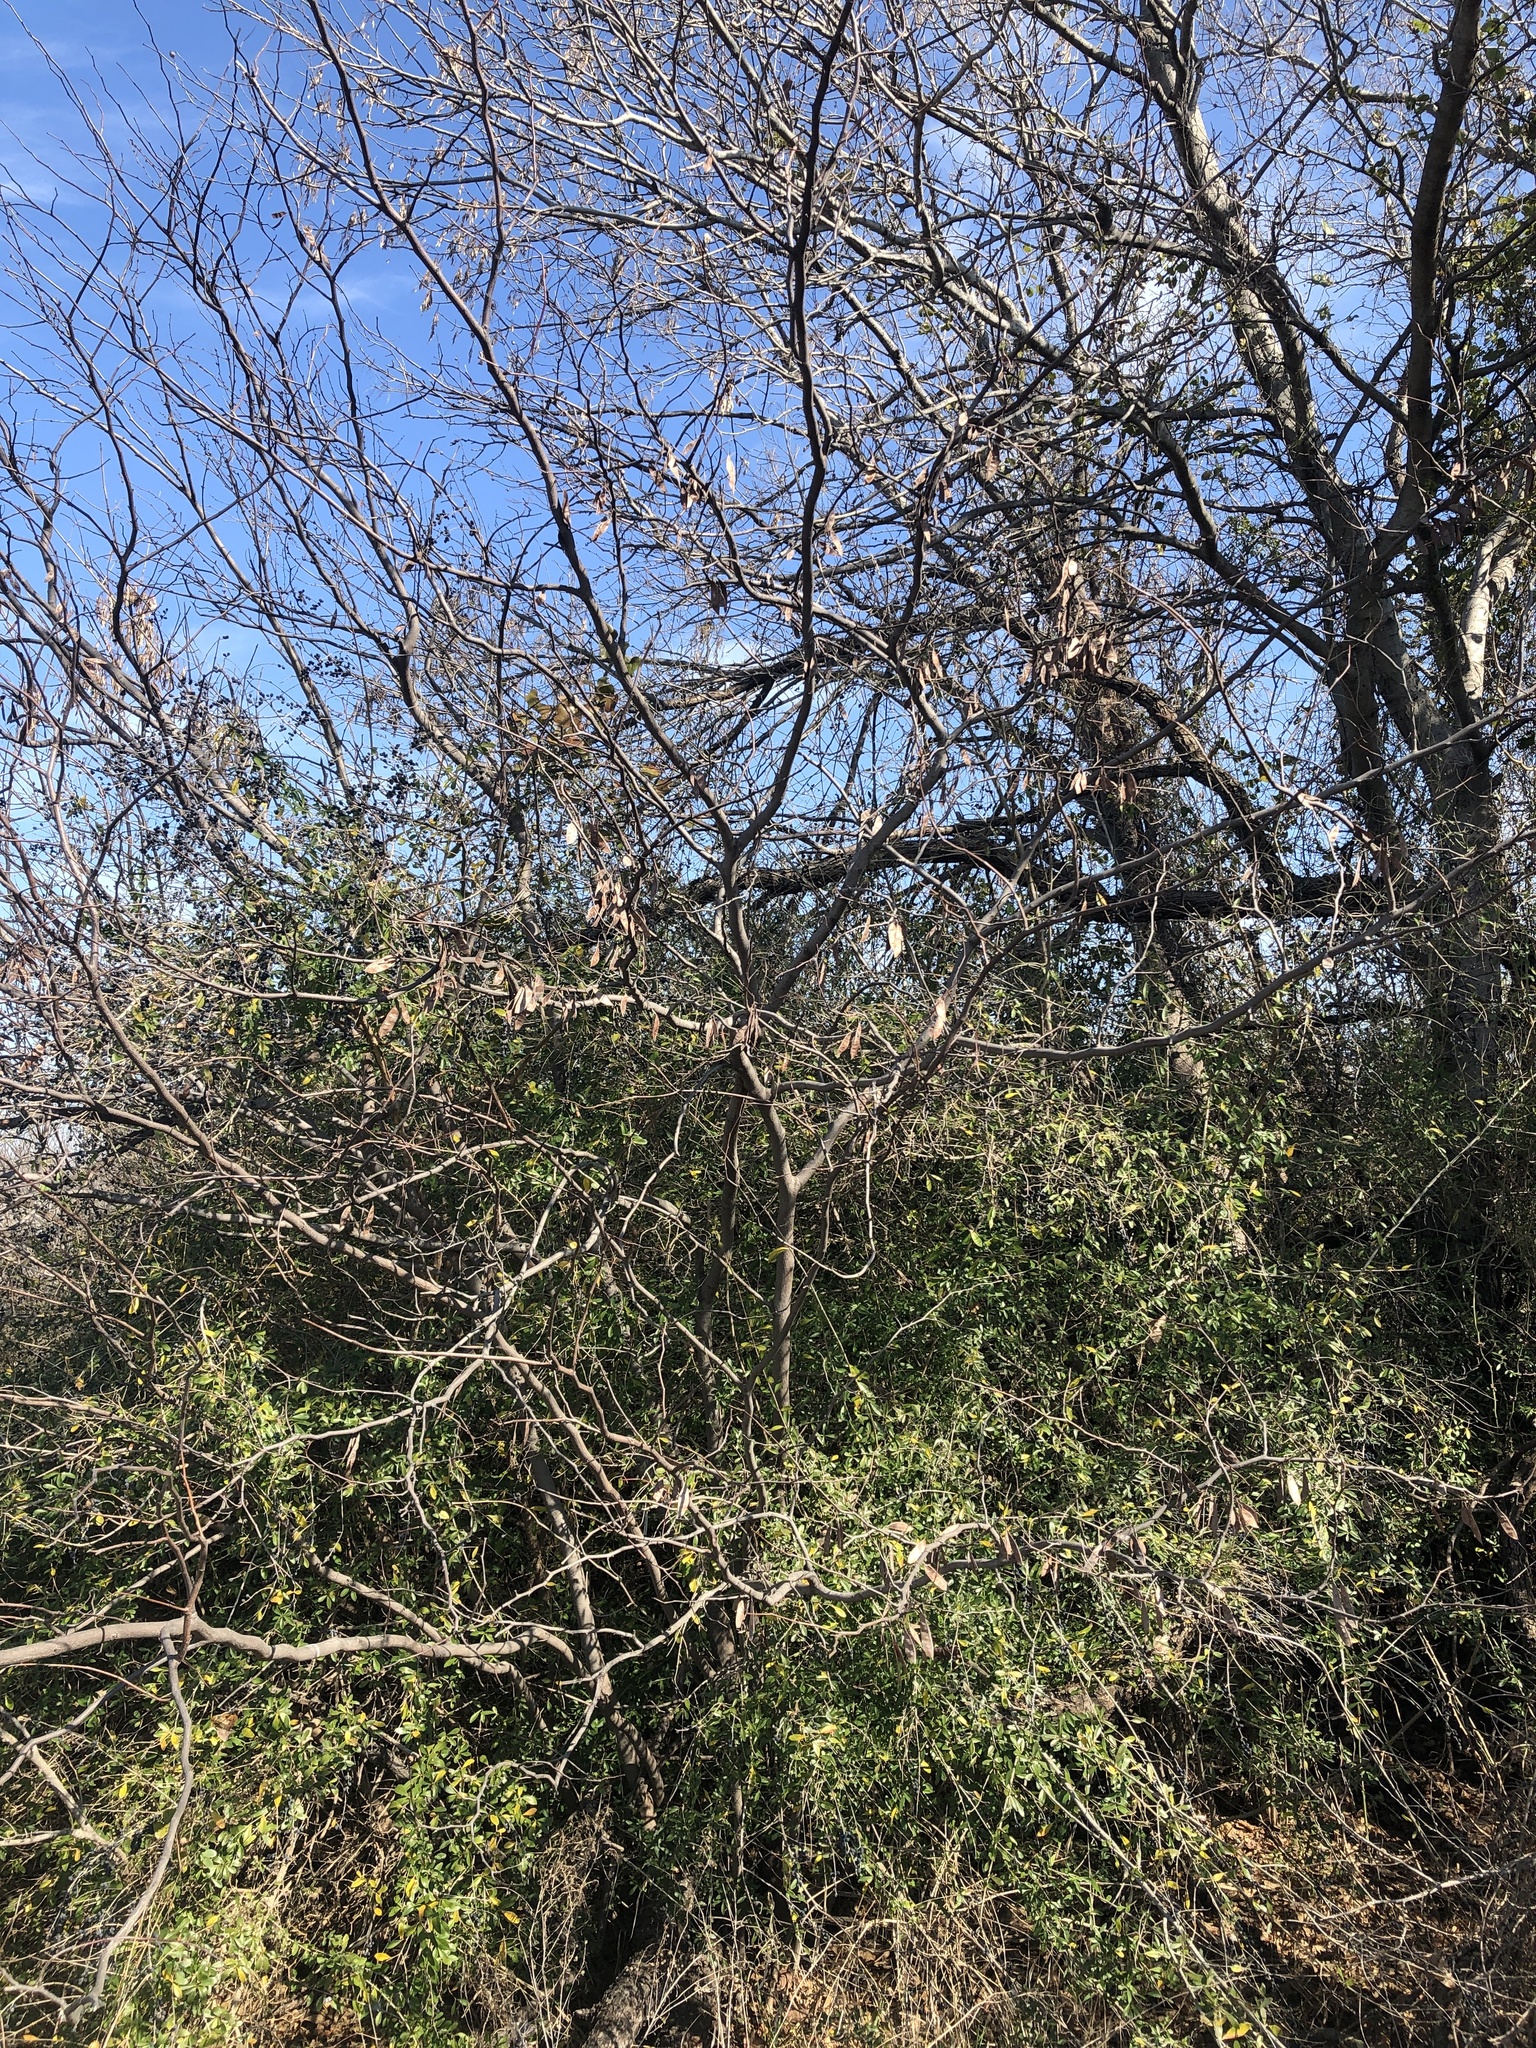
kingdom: Plantae
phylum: Tracheophyta
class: Magnoliopsida
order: Fabales
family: Fabaceae
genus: Cercis
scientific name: Cercis canadensis
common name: Eastern redbud
